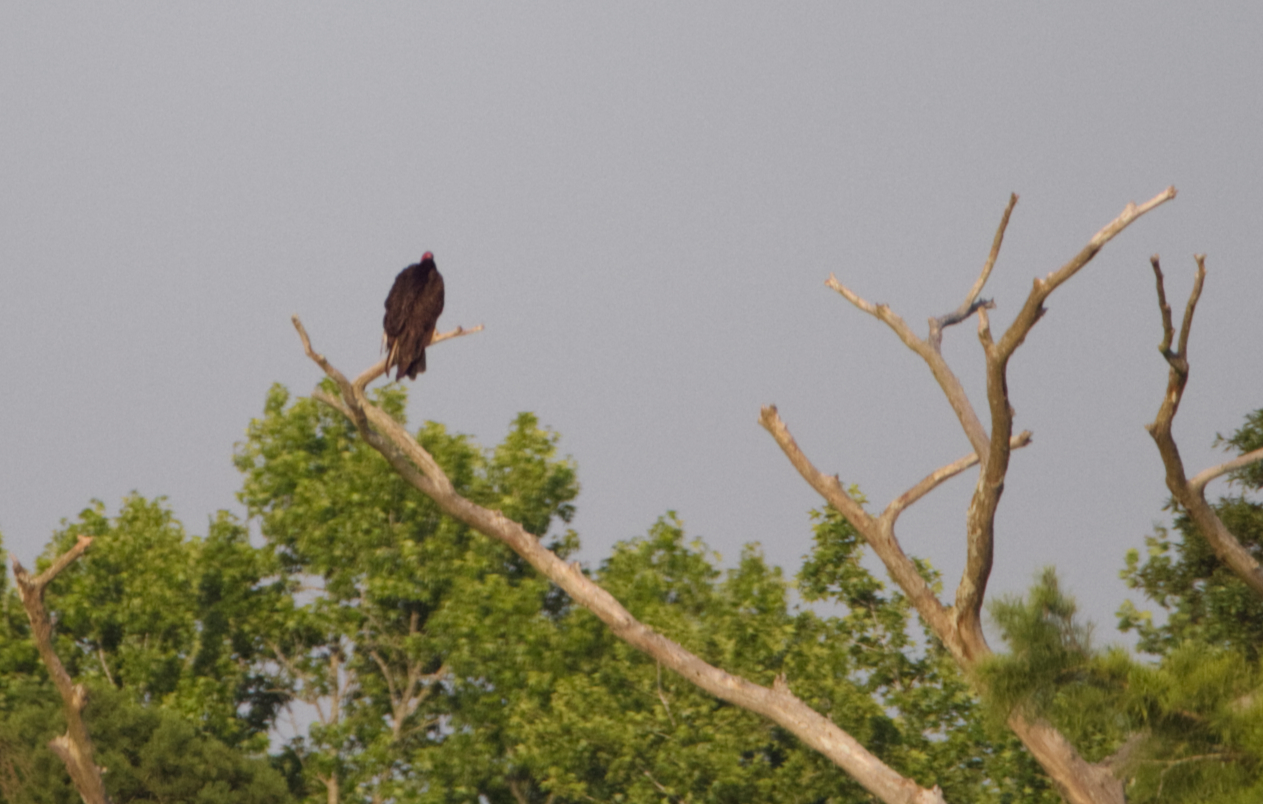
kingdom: Animalia
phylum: Chordata
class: Aves
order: Accipitriformes
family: Cathartidae
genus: Cathartes
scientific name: Cathartes aura
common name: Turkey vulture
